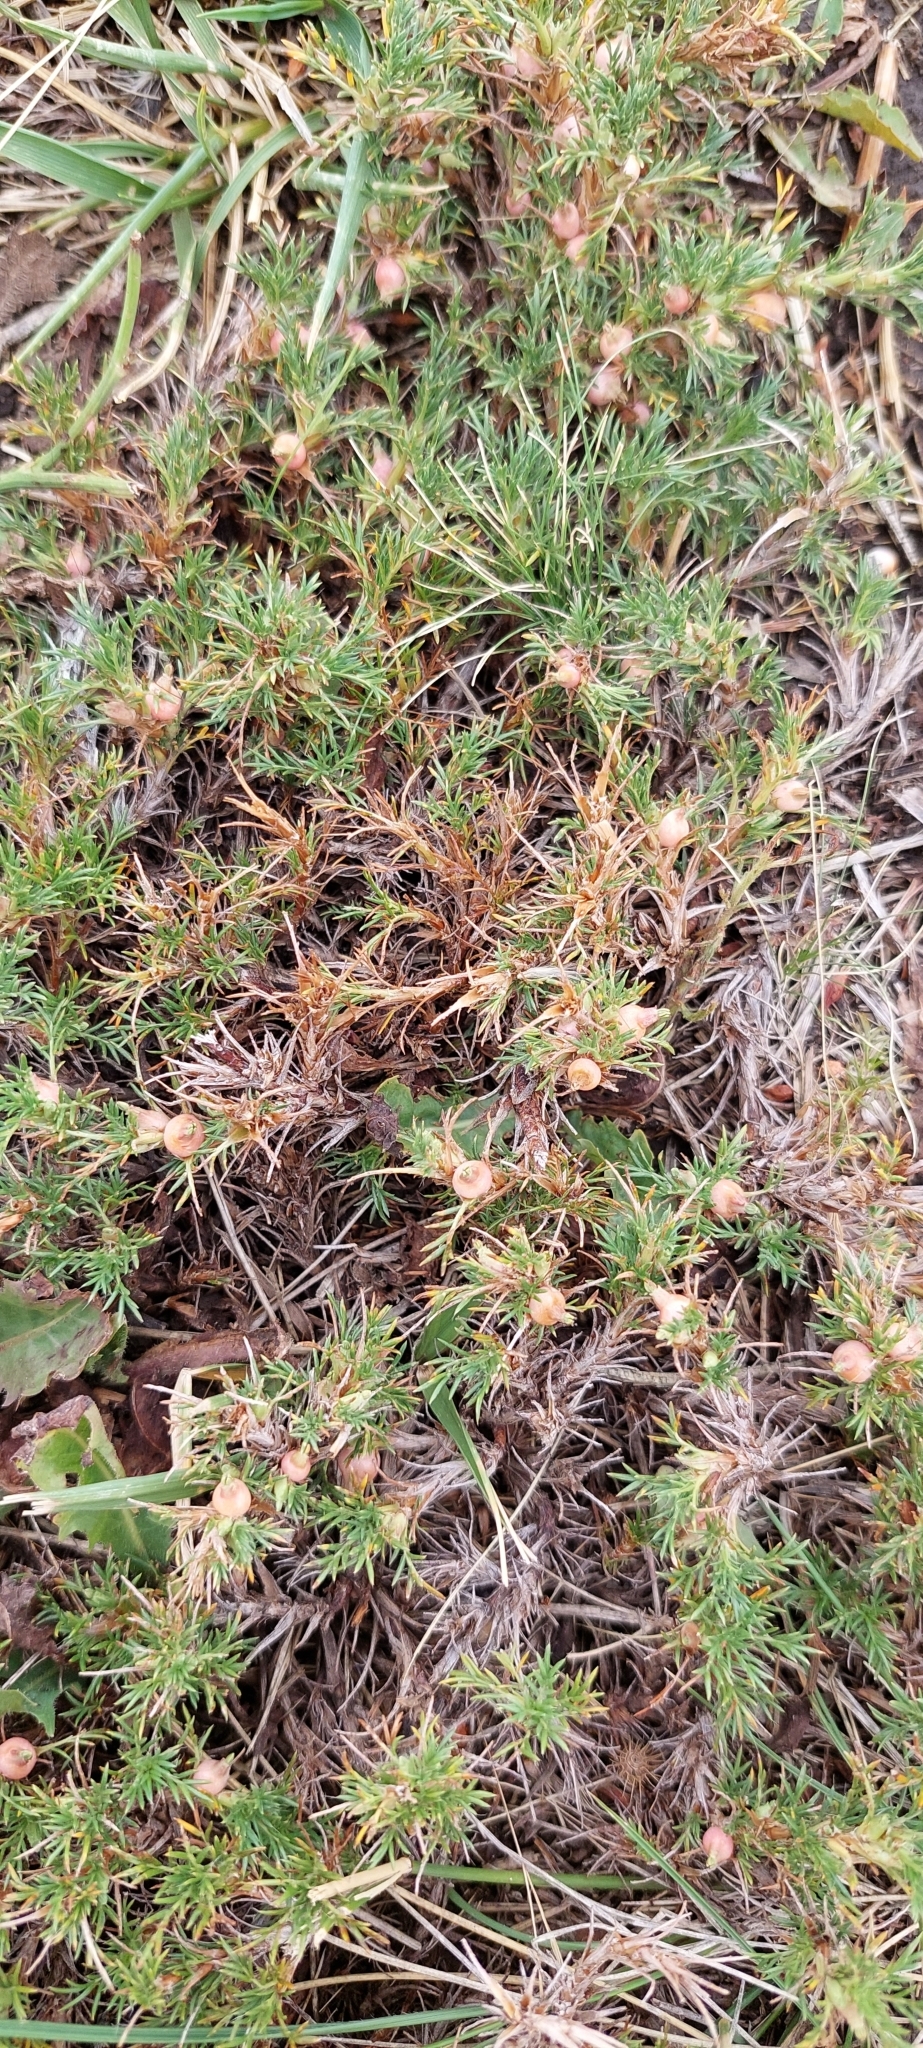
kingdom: Plantae
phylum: Tracheophyta
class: Magnoliopsida
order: Rosales
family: Rosaceae
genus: Margyricarpus
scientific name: Margyricarpus pinnatus
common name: Pearlfruit
